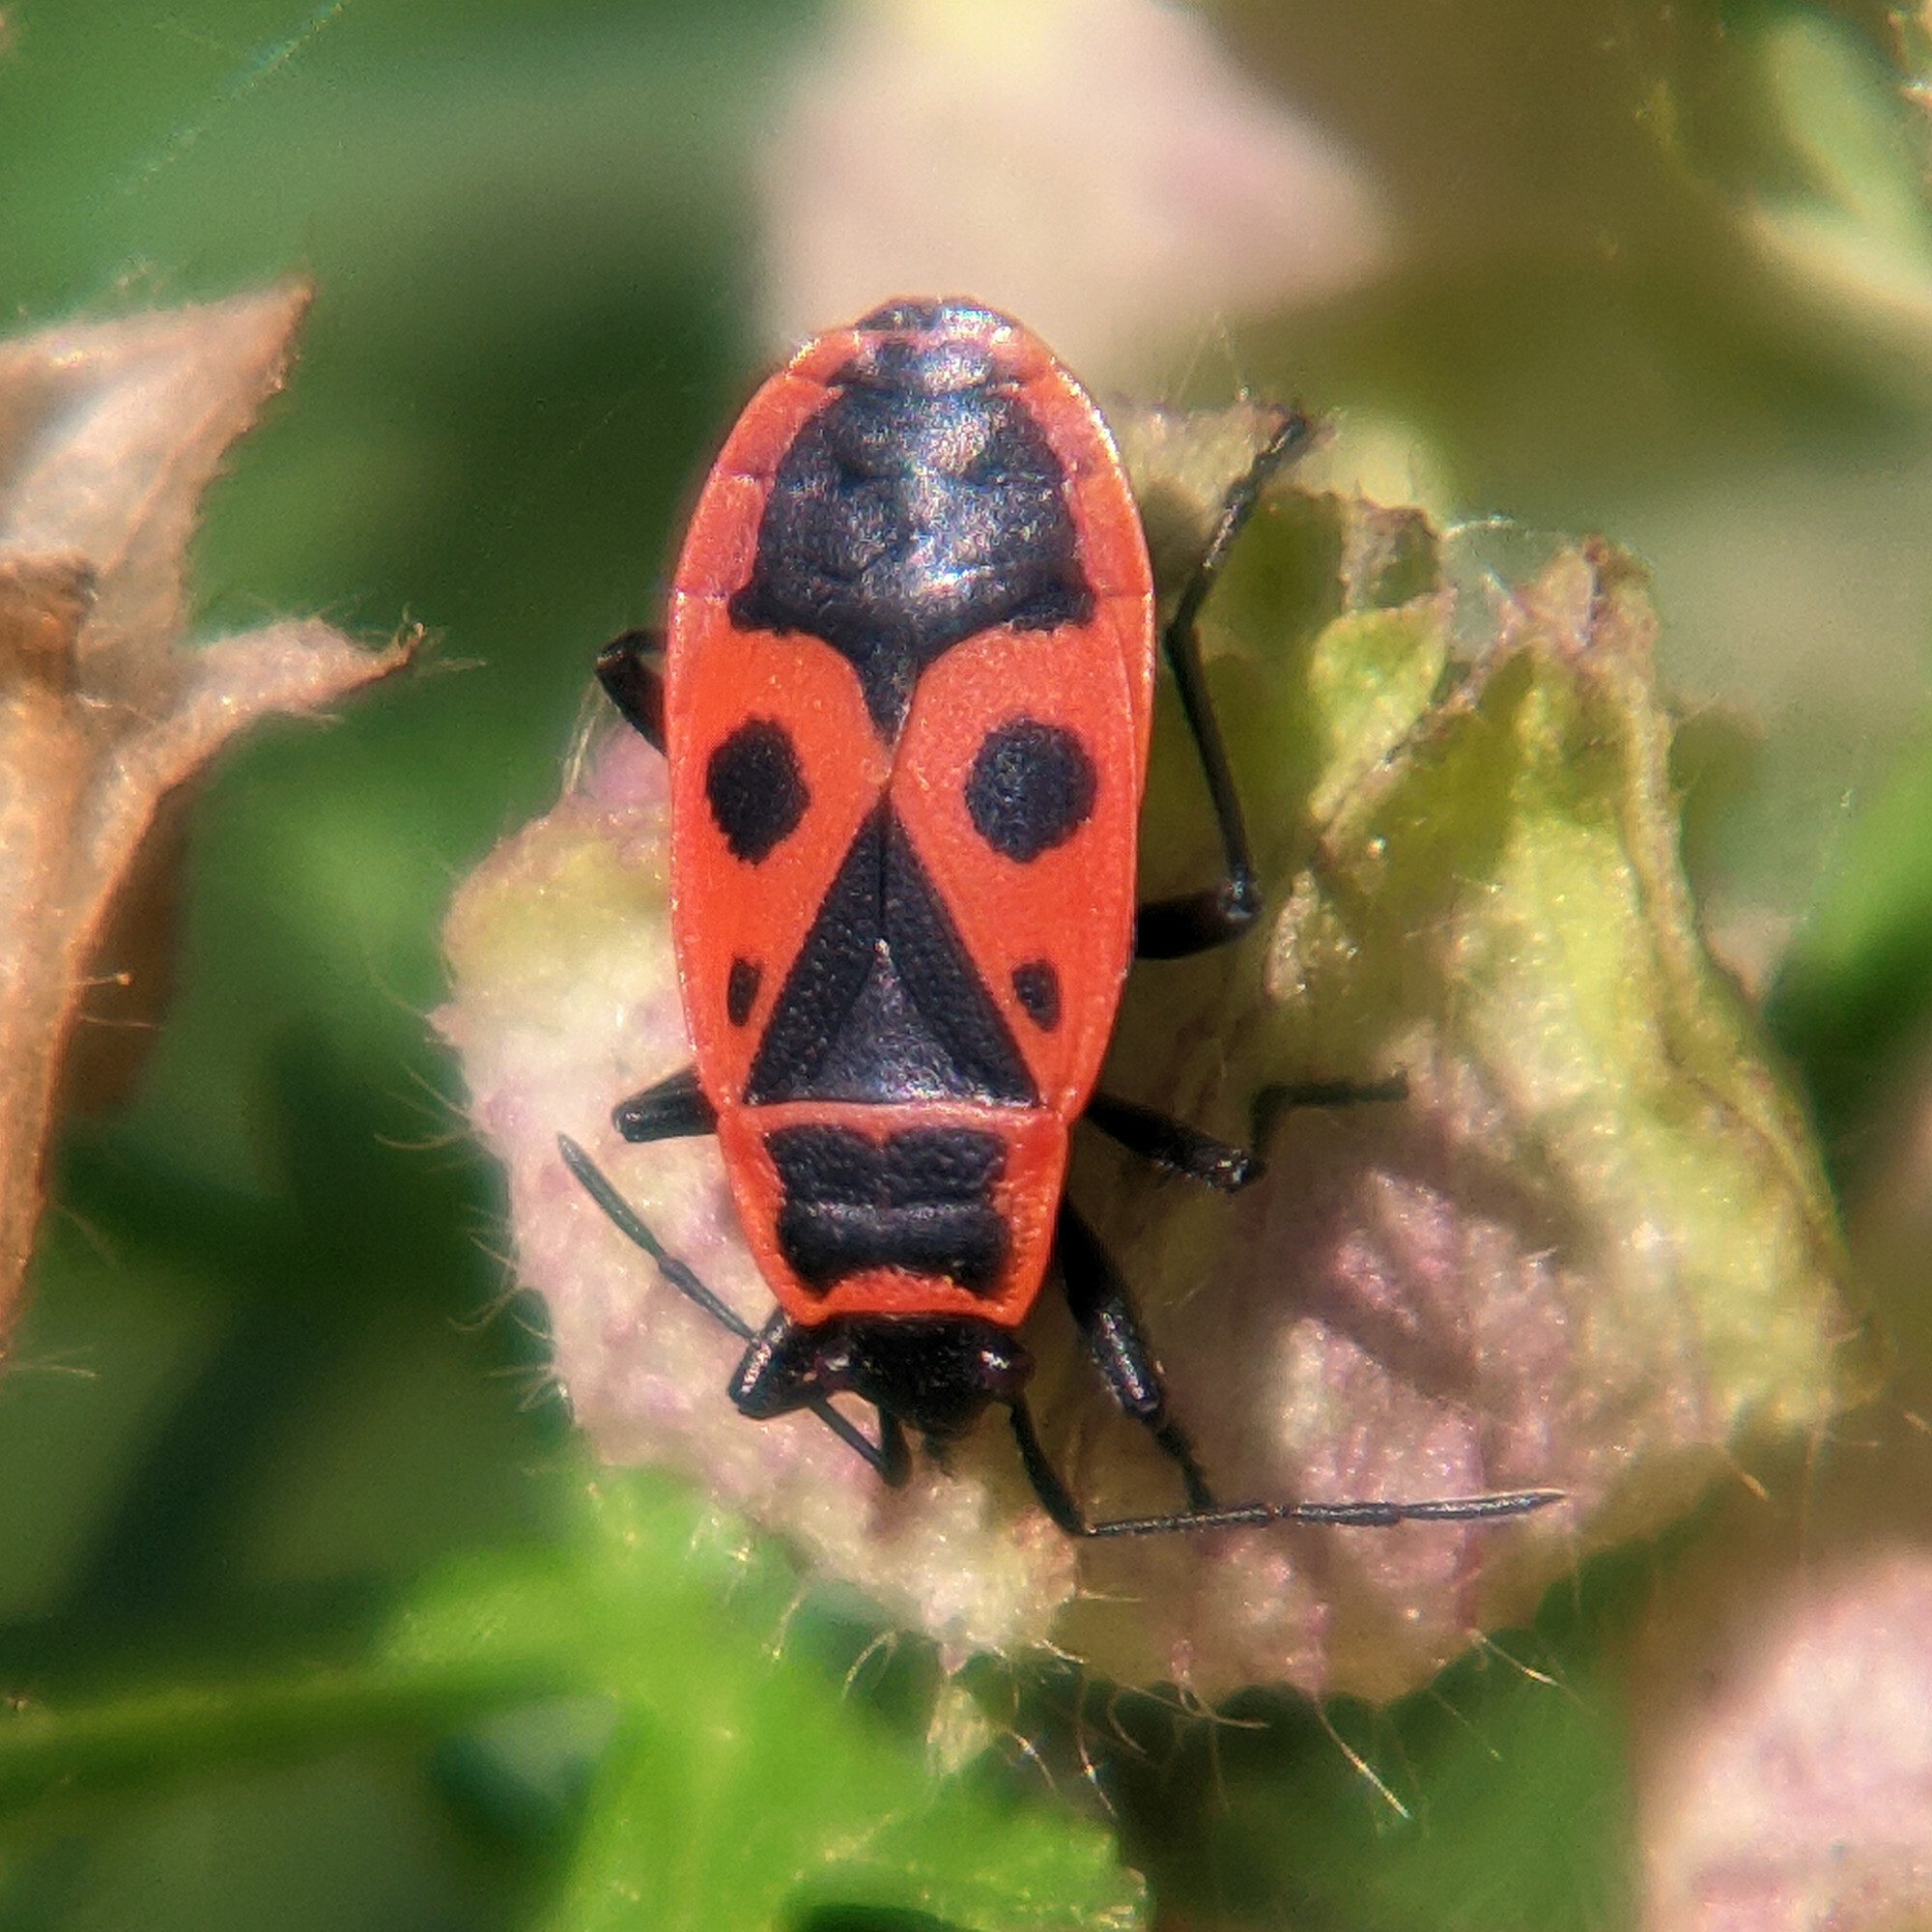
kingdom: Animalia
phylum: Arthropoda
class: Insecta
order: Hemiptera
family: Pyrrhocoridae
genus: Pyrrhocoris
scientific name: Pyrrhocoris apterus
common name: Firebug
